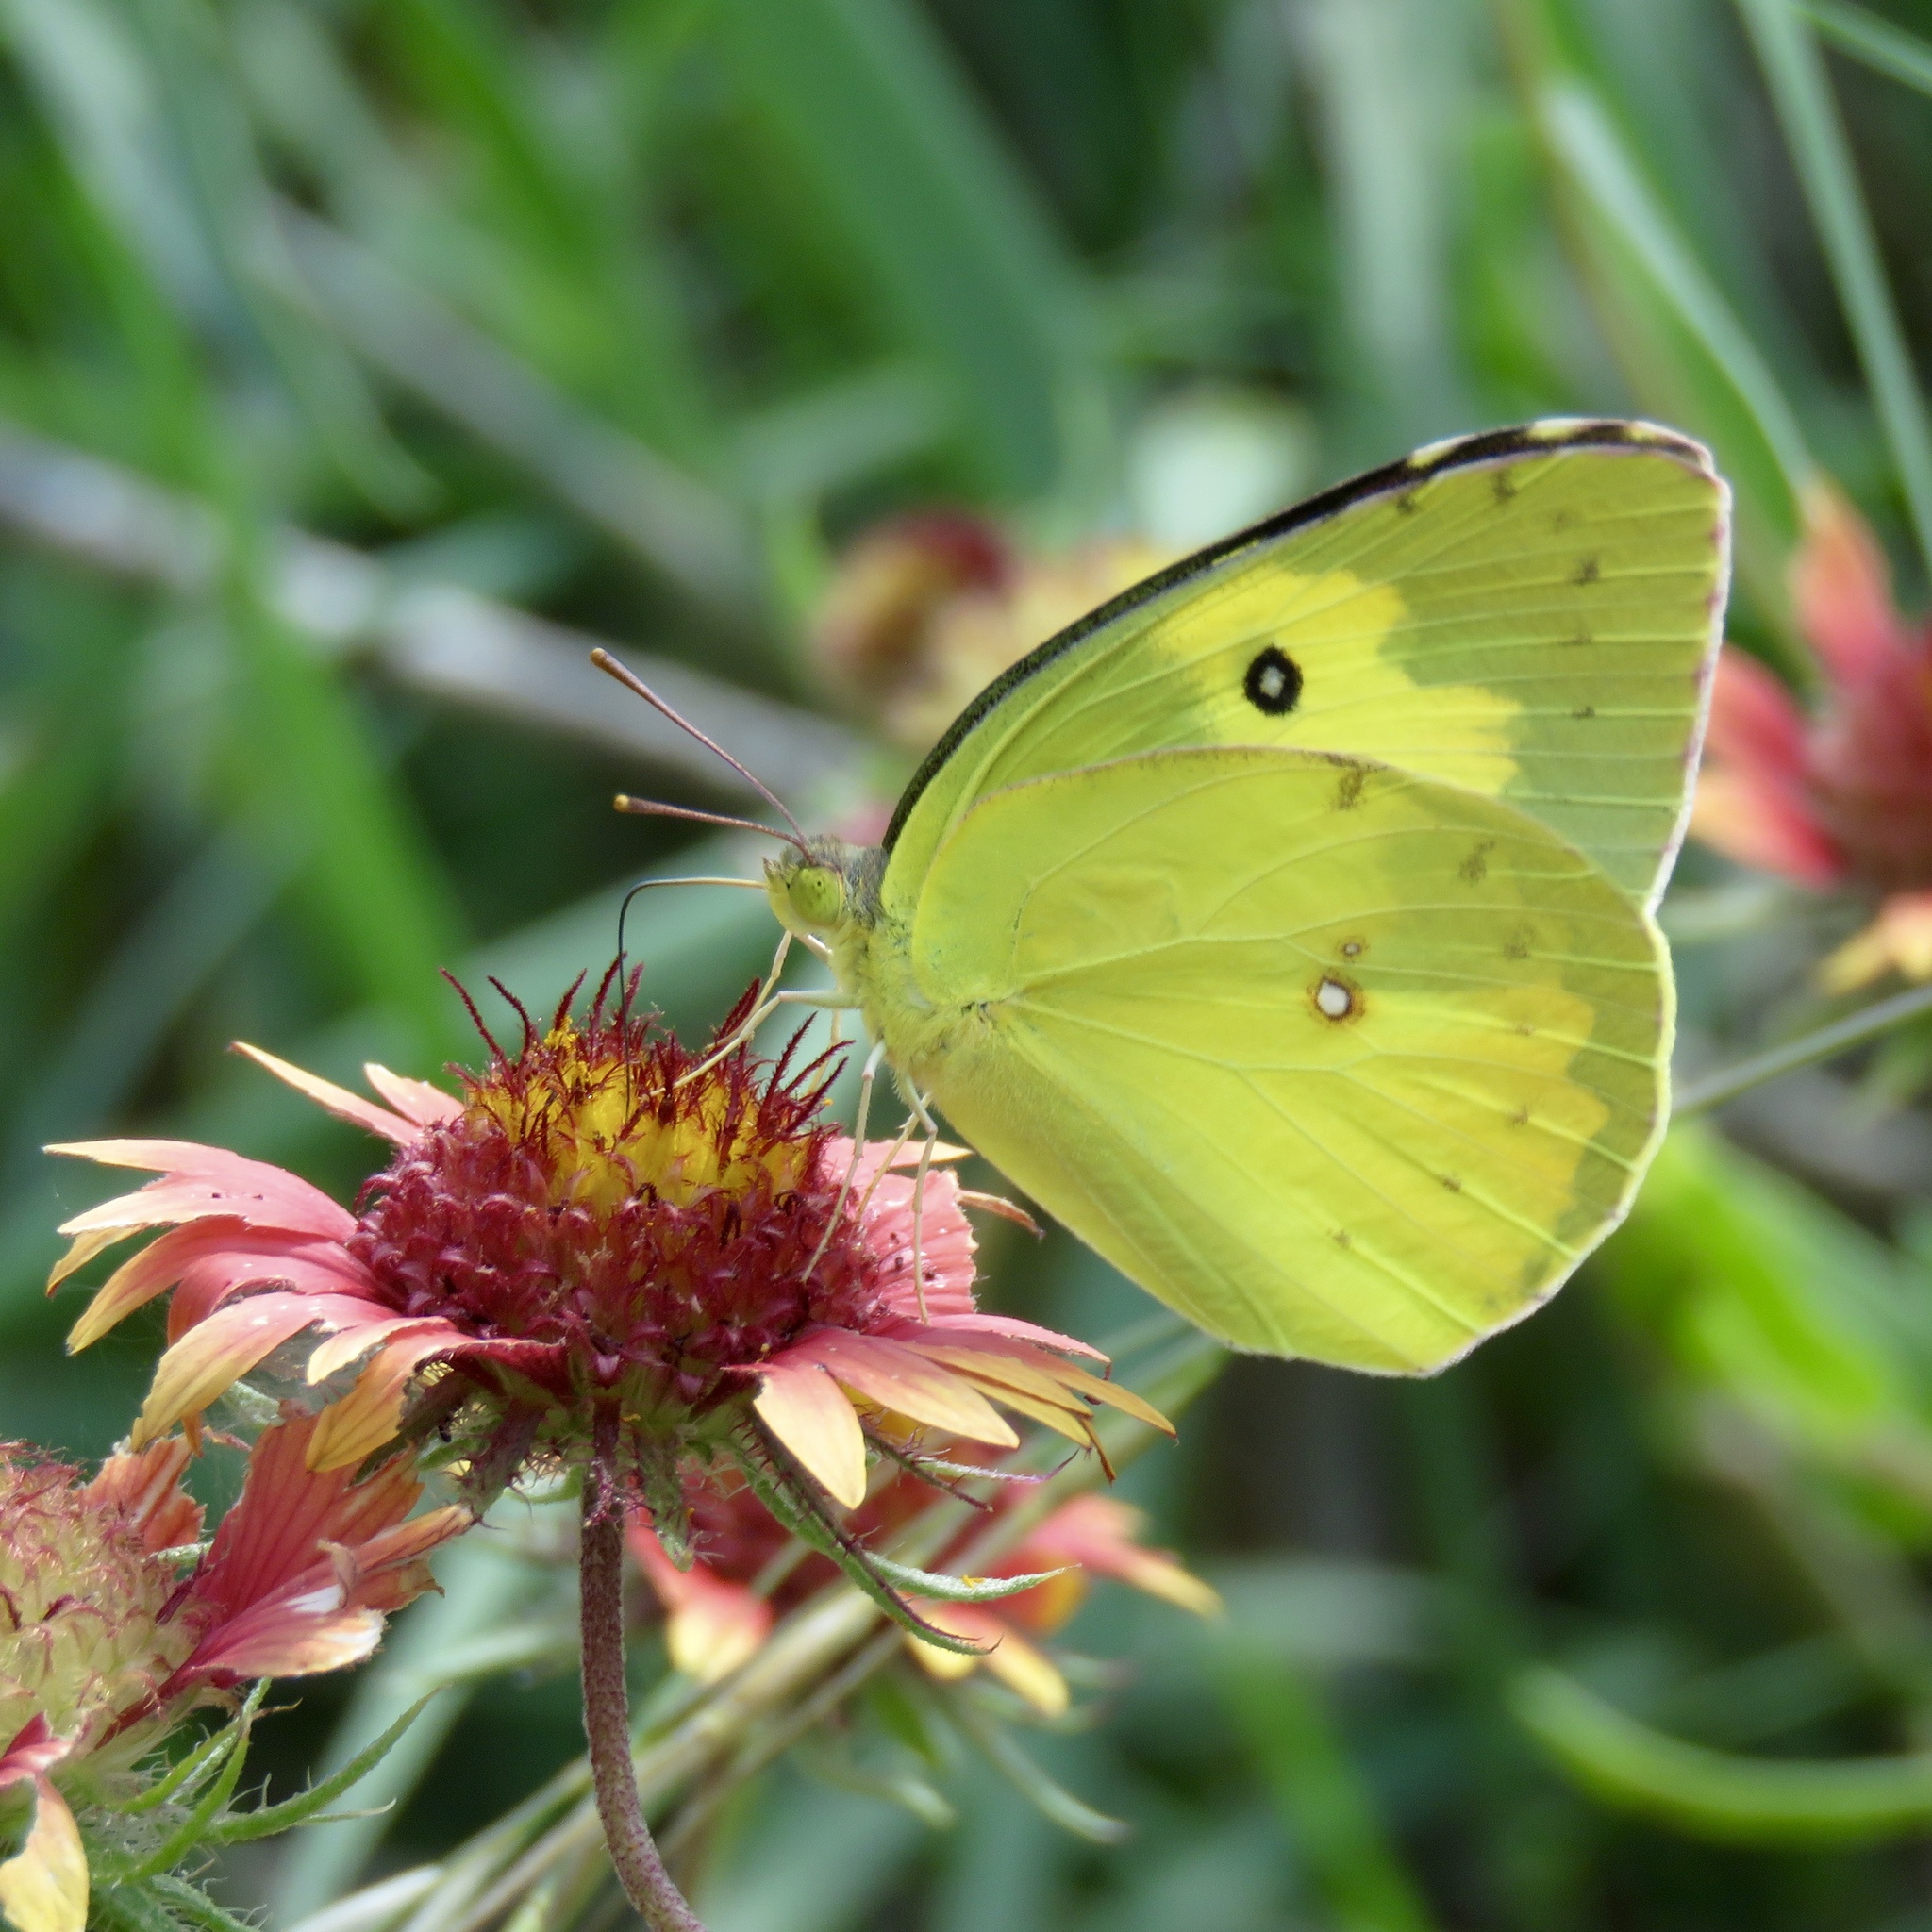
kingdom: Animalia
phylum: Arthropoda
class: Insecta
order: Lepidoptera
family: Pieridae
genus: Zerene
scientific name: Zerene cesonia
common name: Southern dogface
